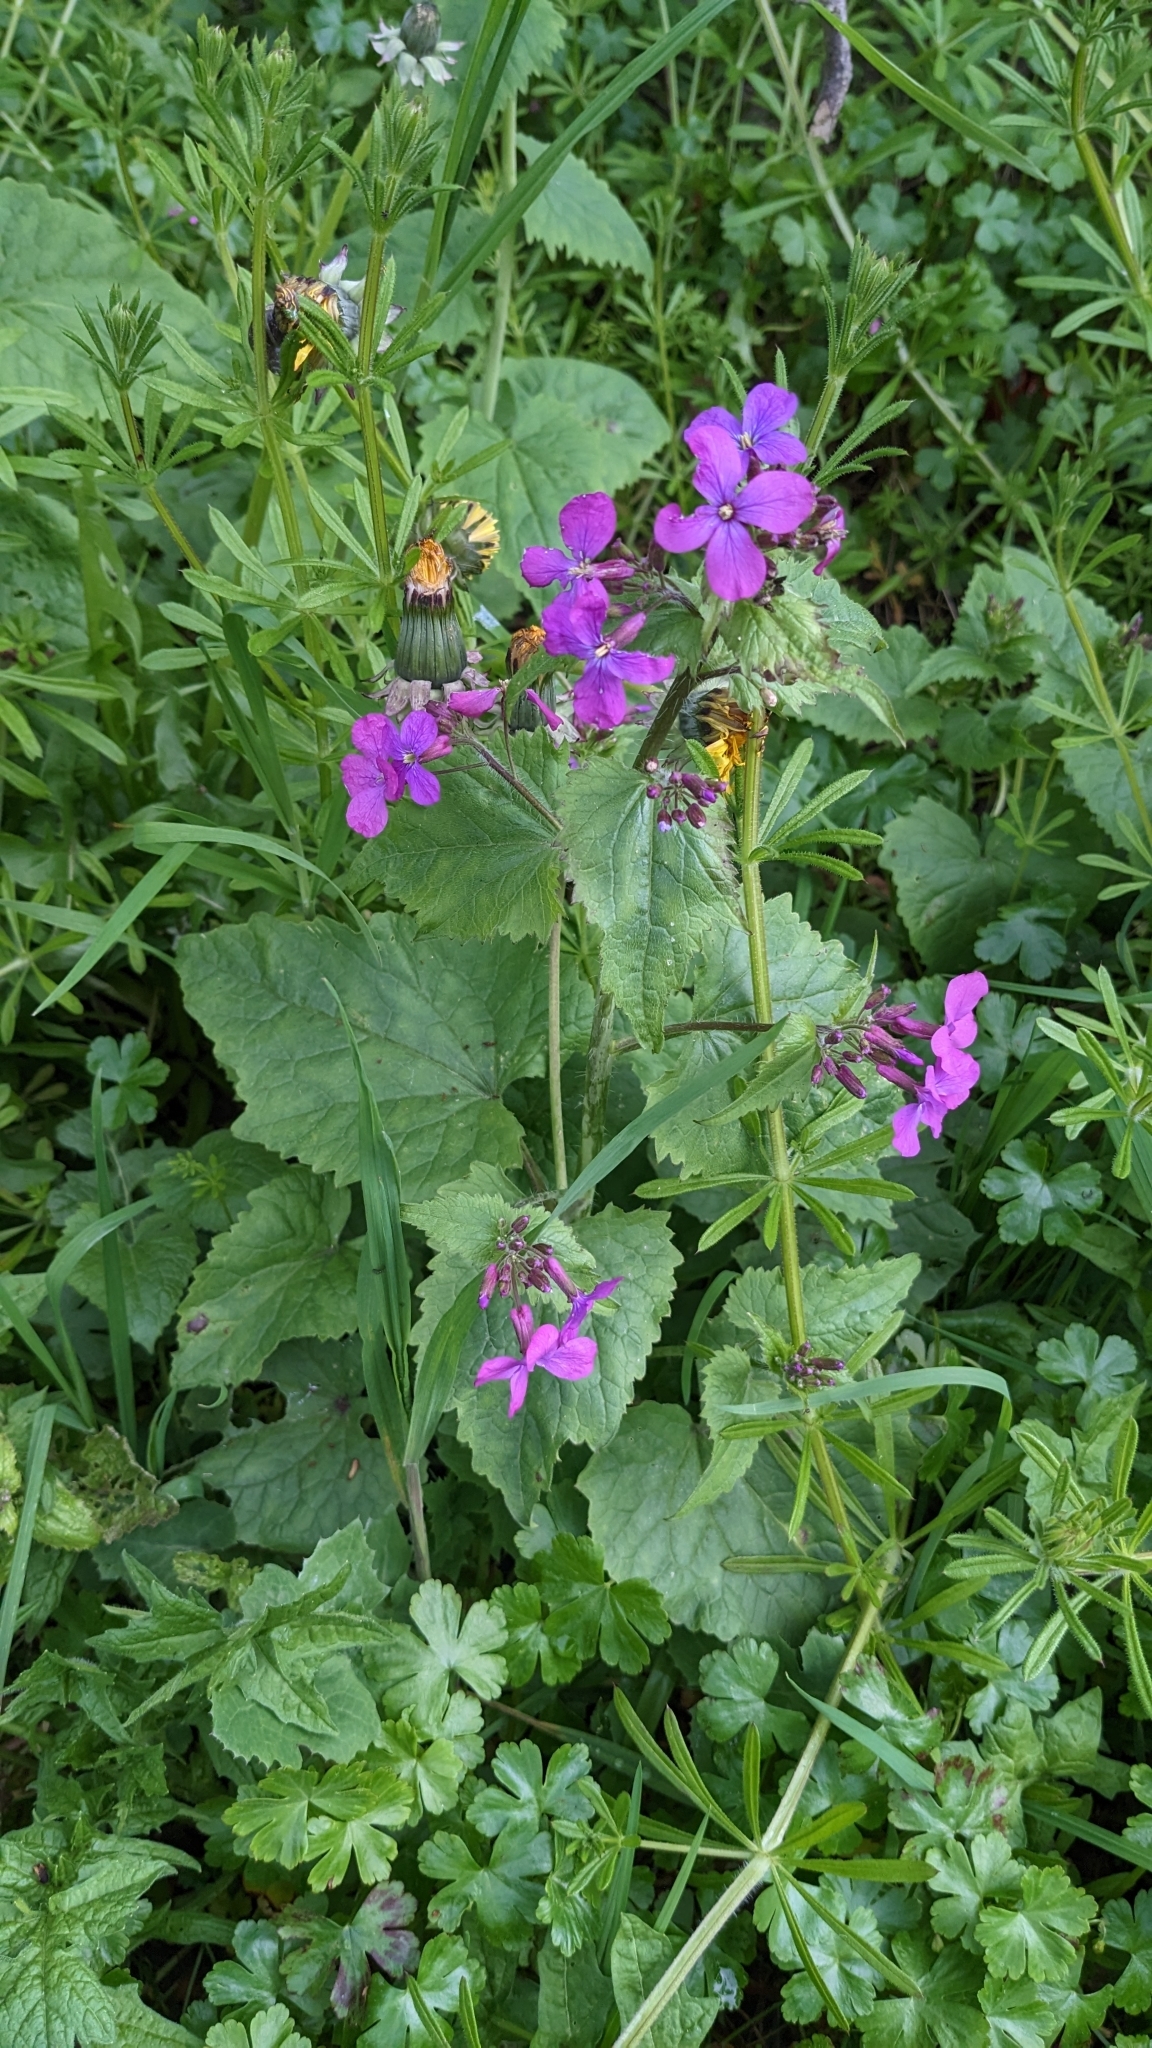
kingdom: Plantae
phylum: Tracheophyta
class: Magnoliopsida
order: Brassicales
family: Brassicaceae
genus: Lunaria
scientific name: Lunaria annua
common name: Honesty
